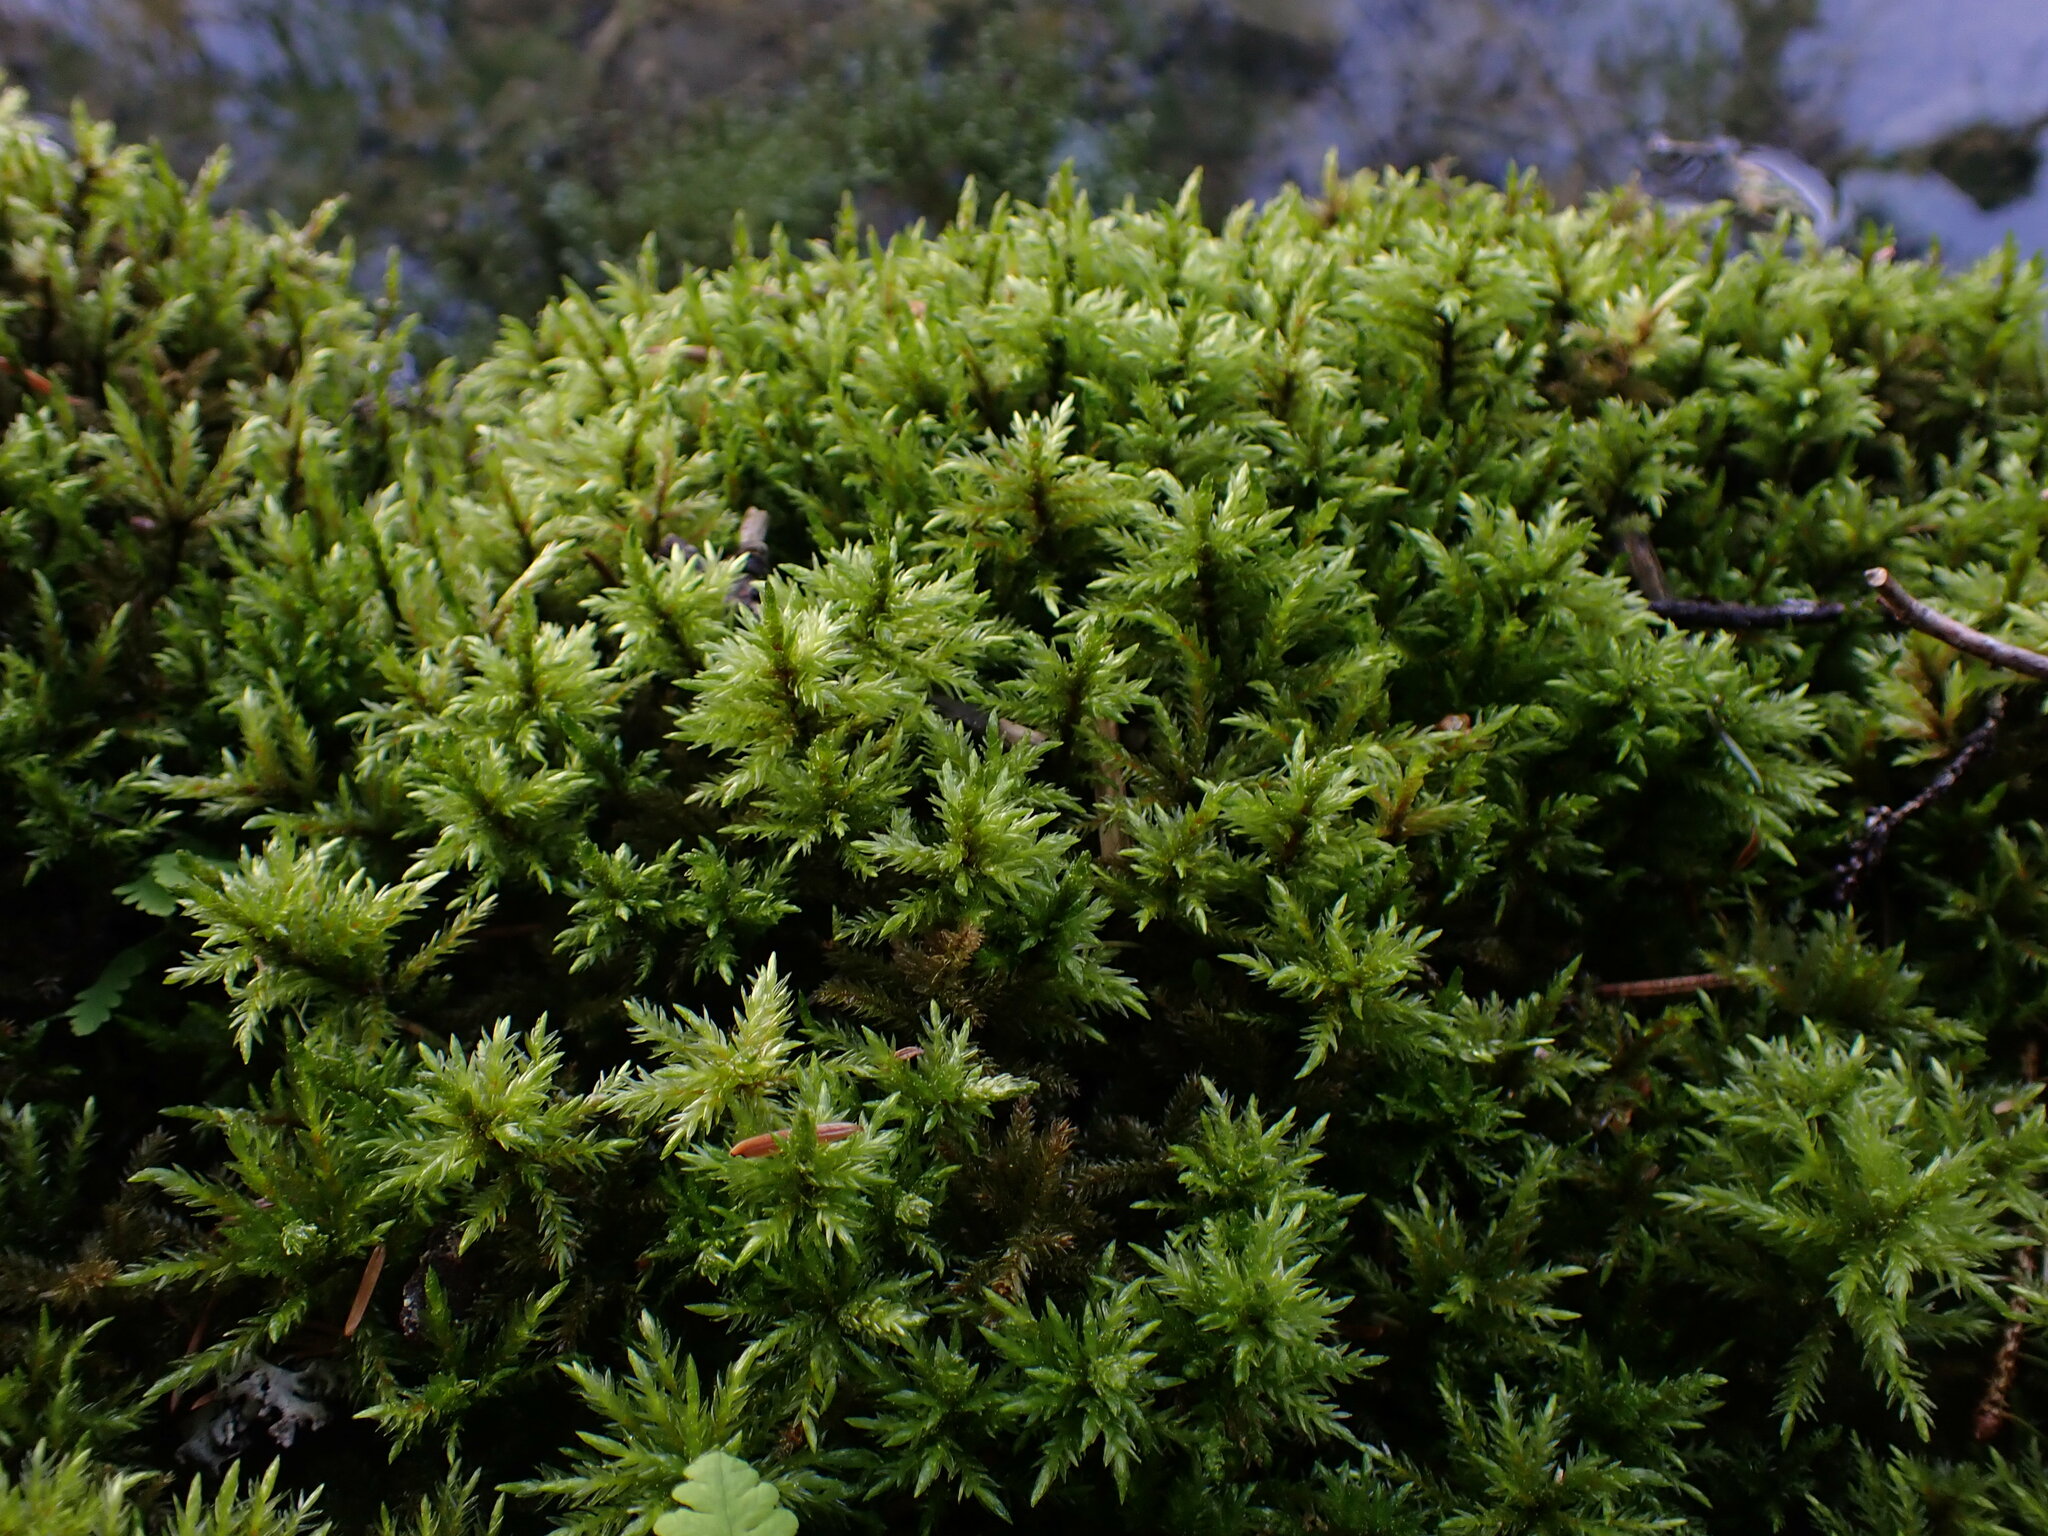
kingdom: Plantae
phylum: Bryophyta
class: Bryopsida
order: Hypnales
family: Climaciaceae
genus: Climacium
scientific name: Climacium dendroides
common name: Northern tree moss
